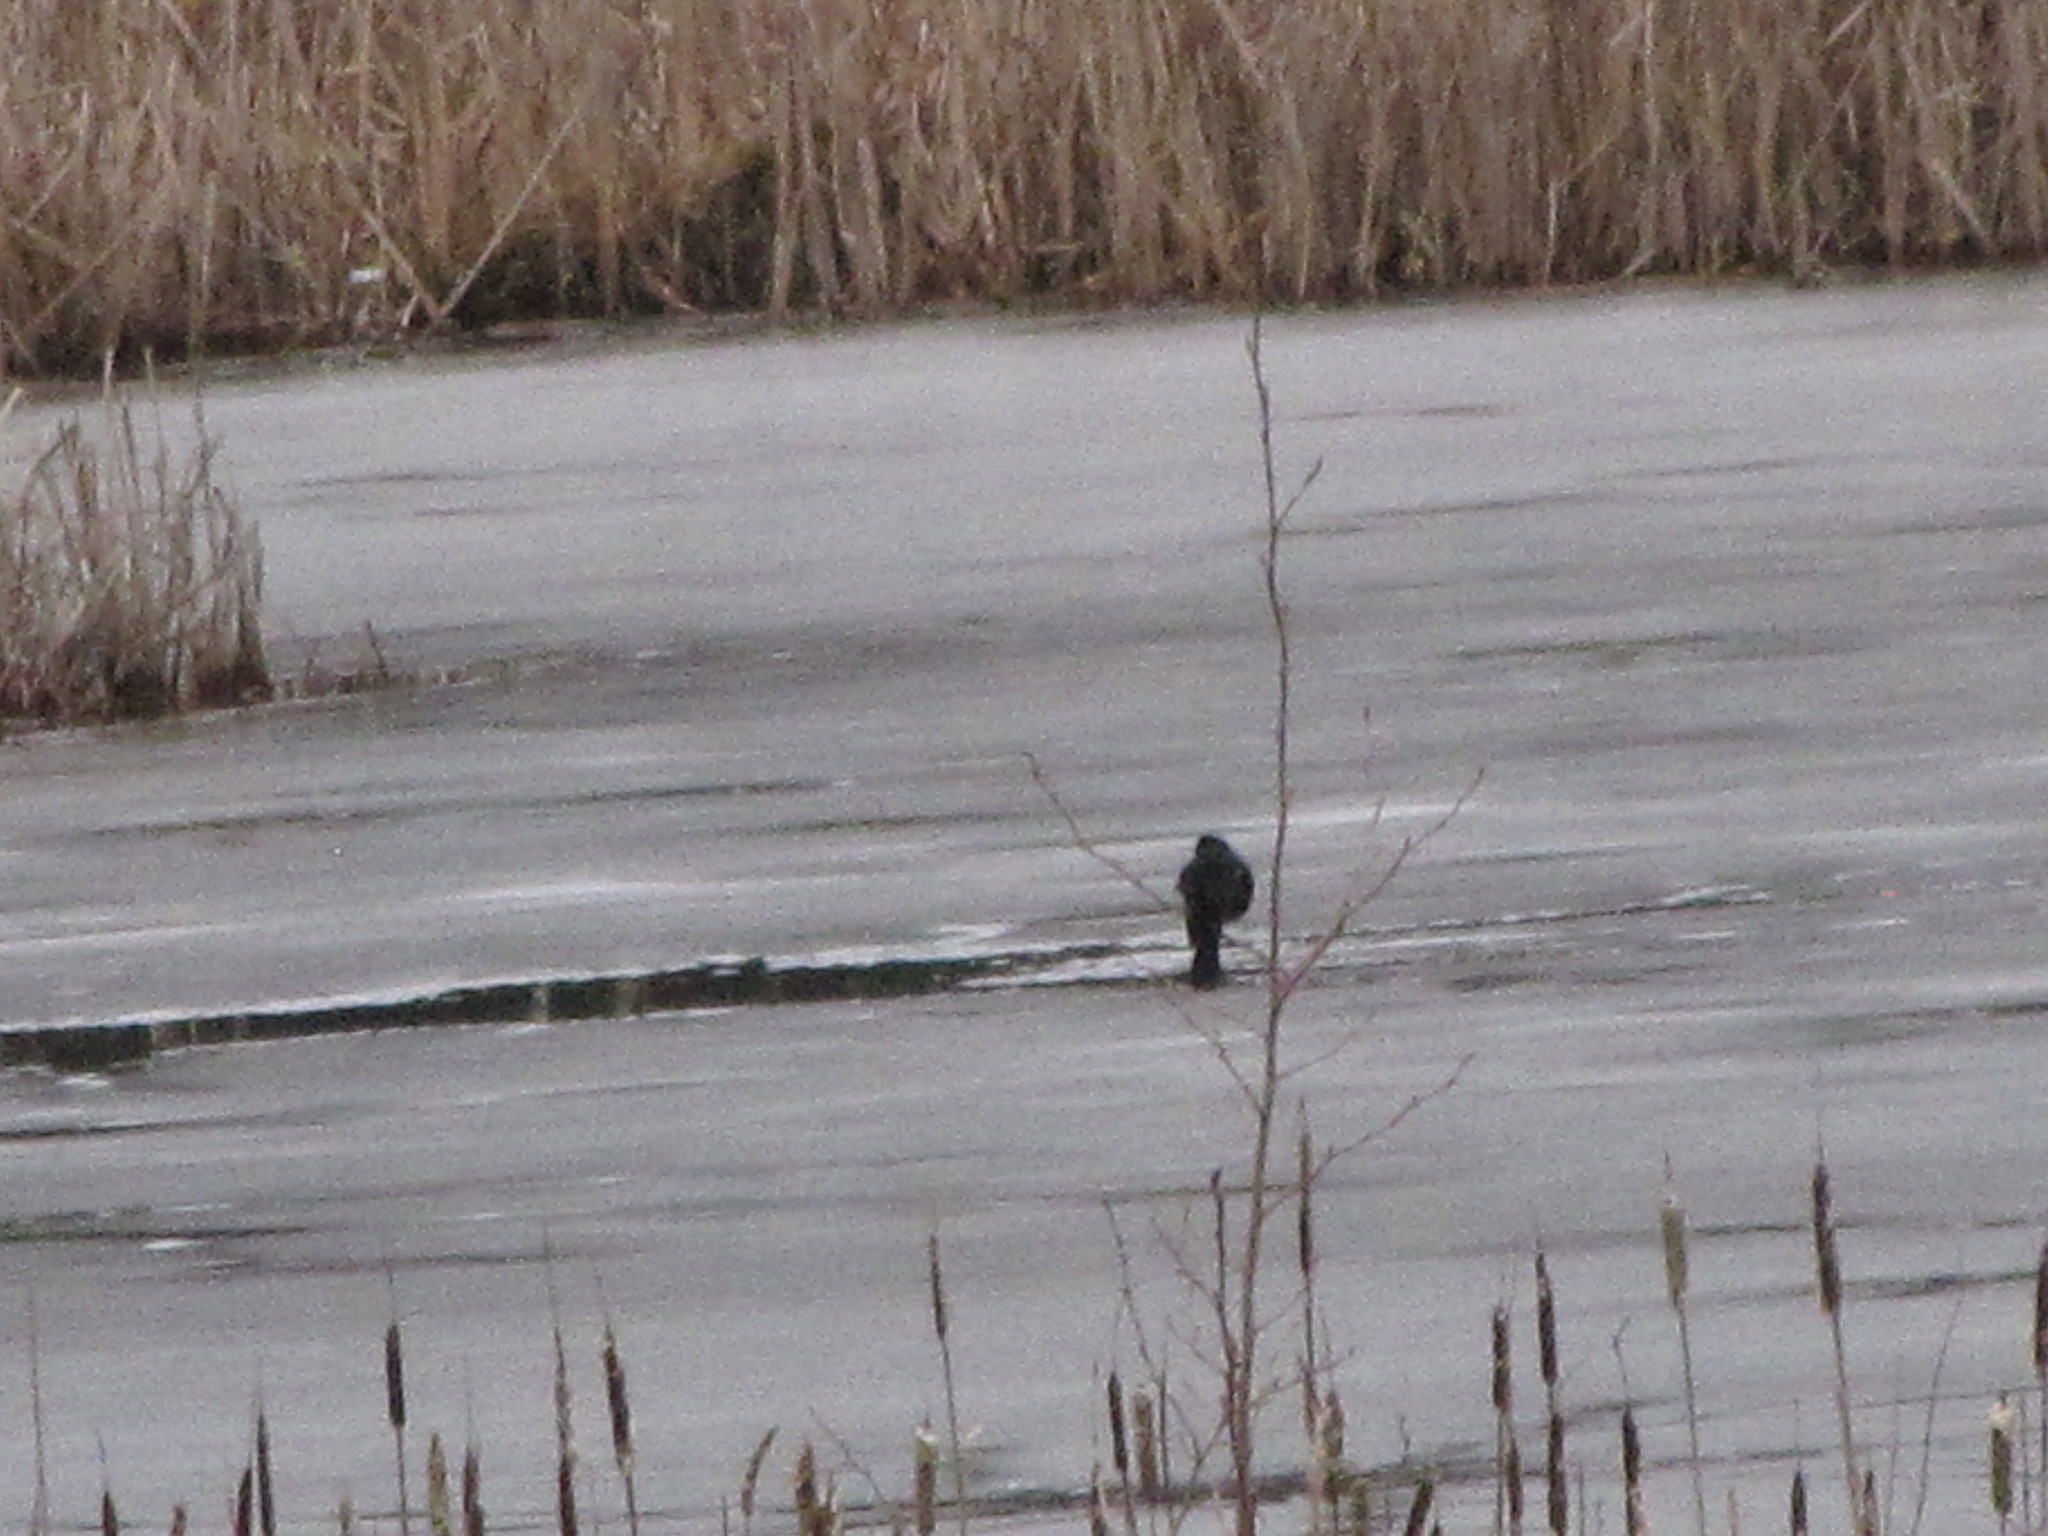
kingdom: Animalia
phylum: Chordata
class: Aves
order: Passeriformes
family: Icteridae
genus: Agelaius
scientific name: Agelaius phoeniceus
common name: Red-winged blackbird
